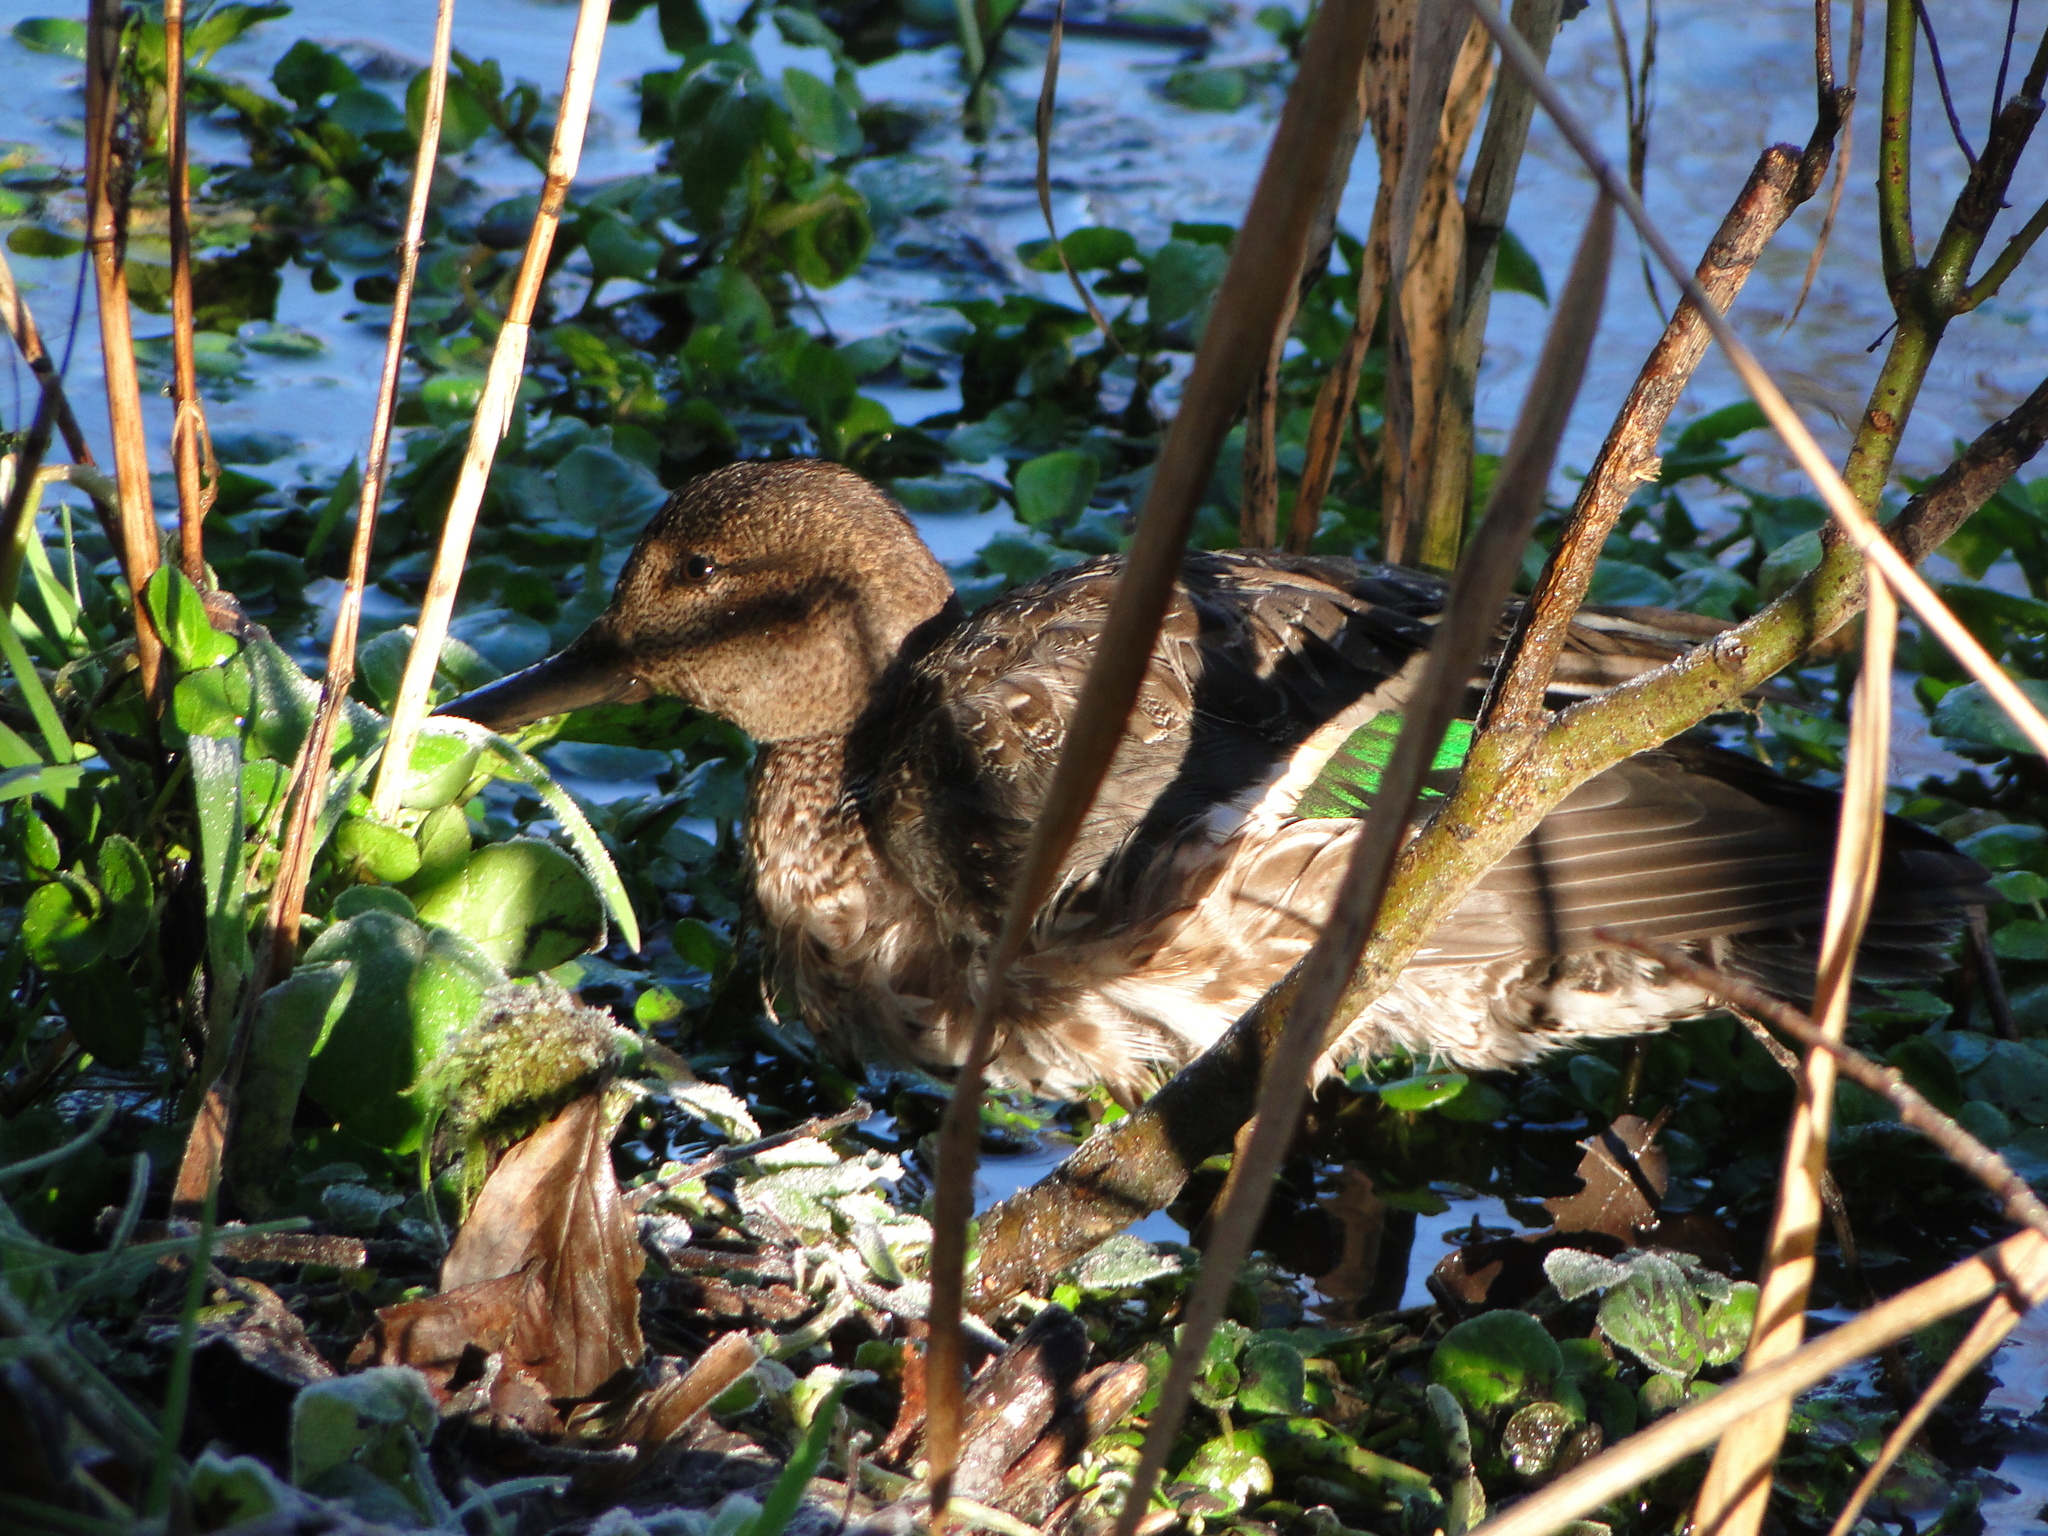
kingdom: Animalia
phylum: Chordata
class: Aves
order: Anseriformes
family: Anatidae
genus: Anas
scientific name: Anas crecca
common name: Eurasian teal
